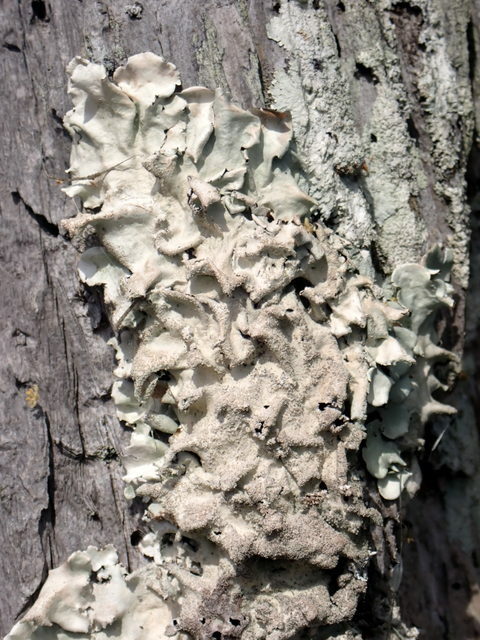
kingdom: Fungi
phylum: Ascomycota
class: Lecanoromycetes
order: Lecanorales
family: Parmeliaceae
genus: Parmotrema
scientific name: Parmotrema tinctorum
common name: Old gray ruffles
